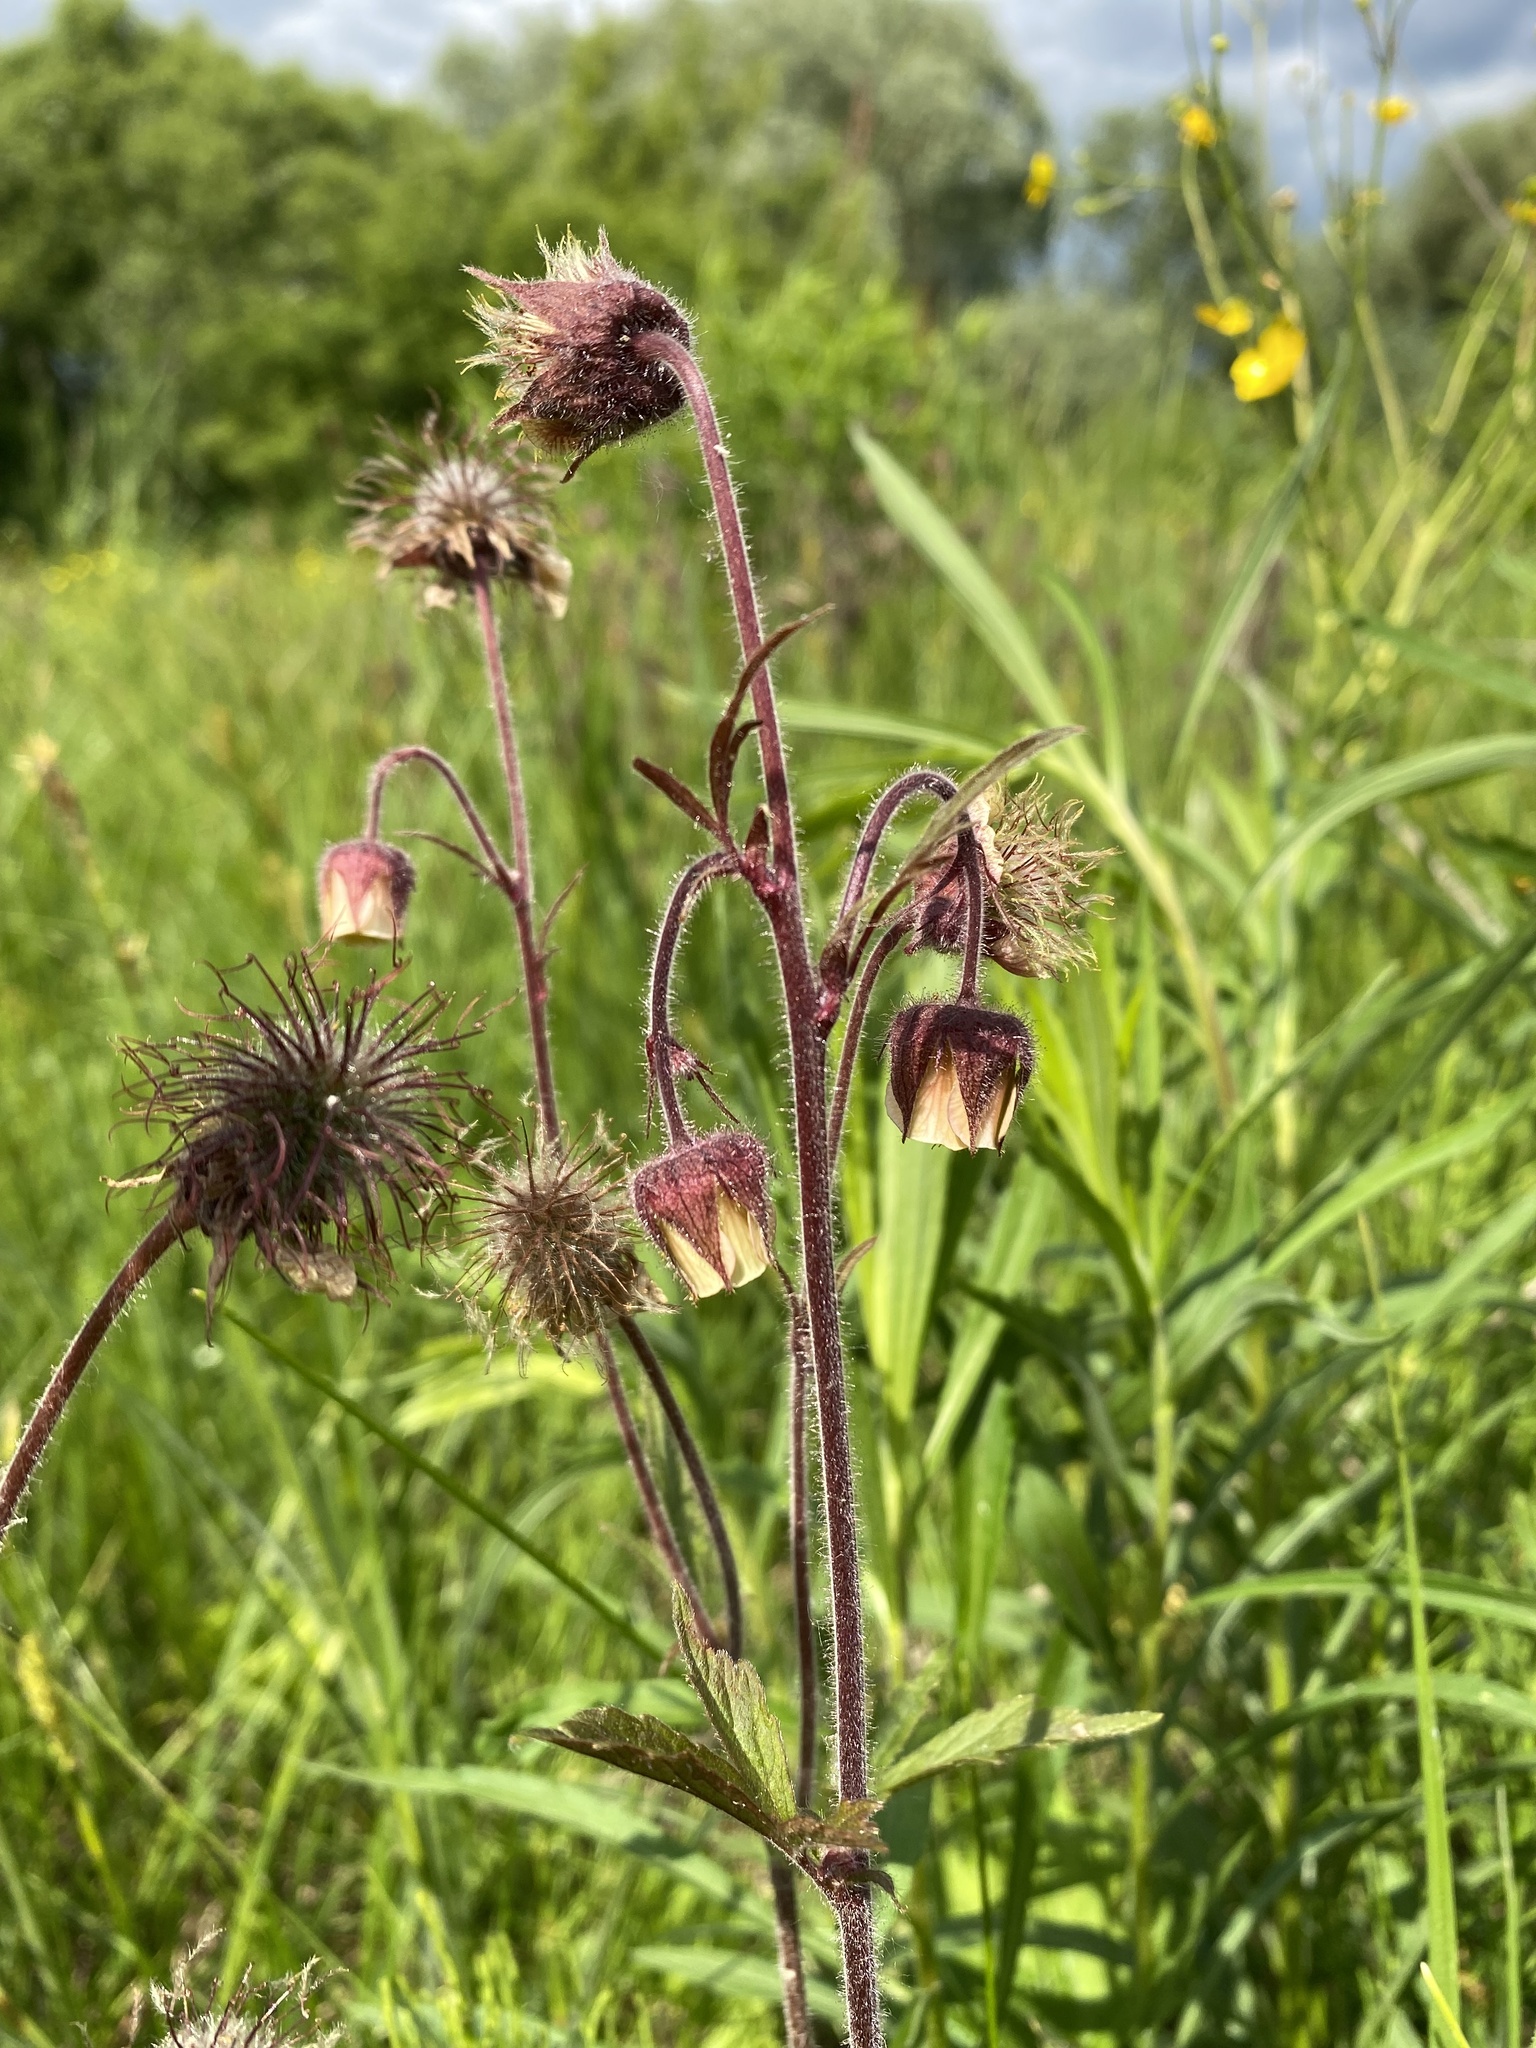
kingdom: Plantae
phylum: Tracheophyta
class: Magnoliopsida
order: Rosales
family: Rosaceae
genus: Geum
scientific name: Geum rivale
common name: Water avens
